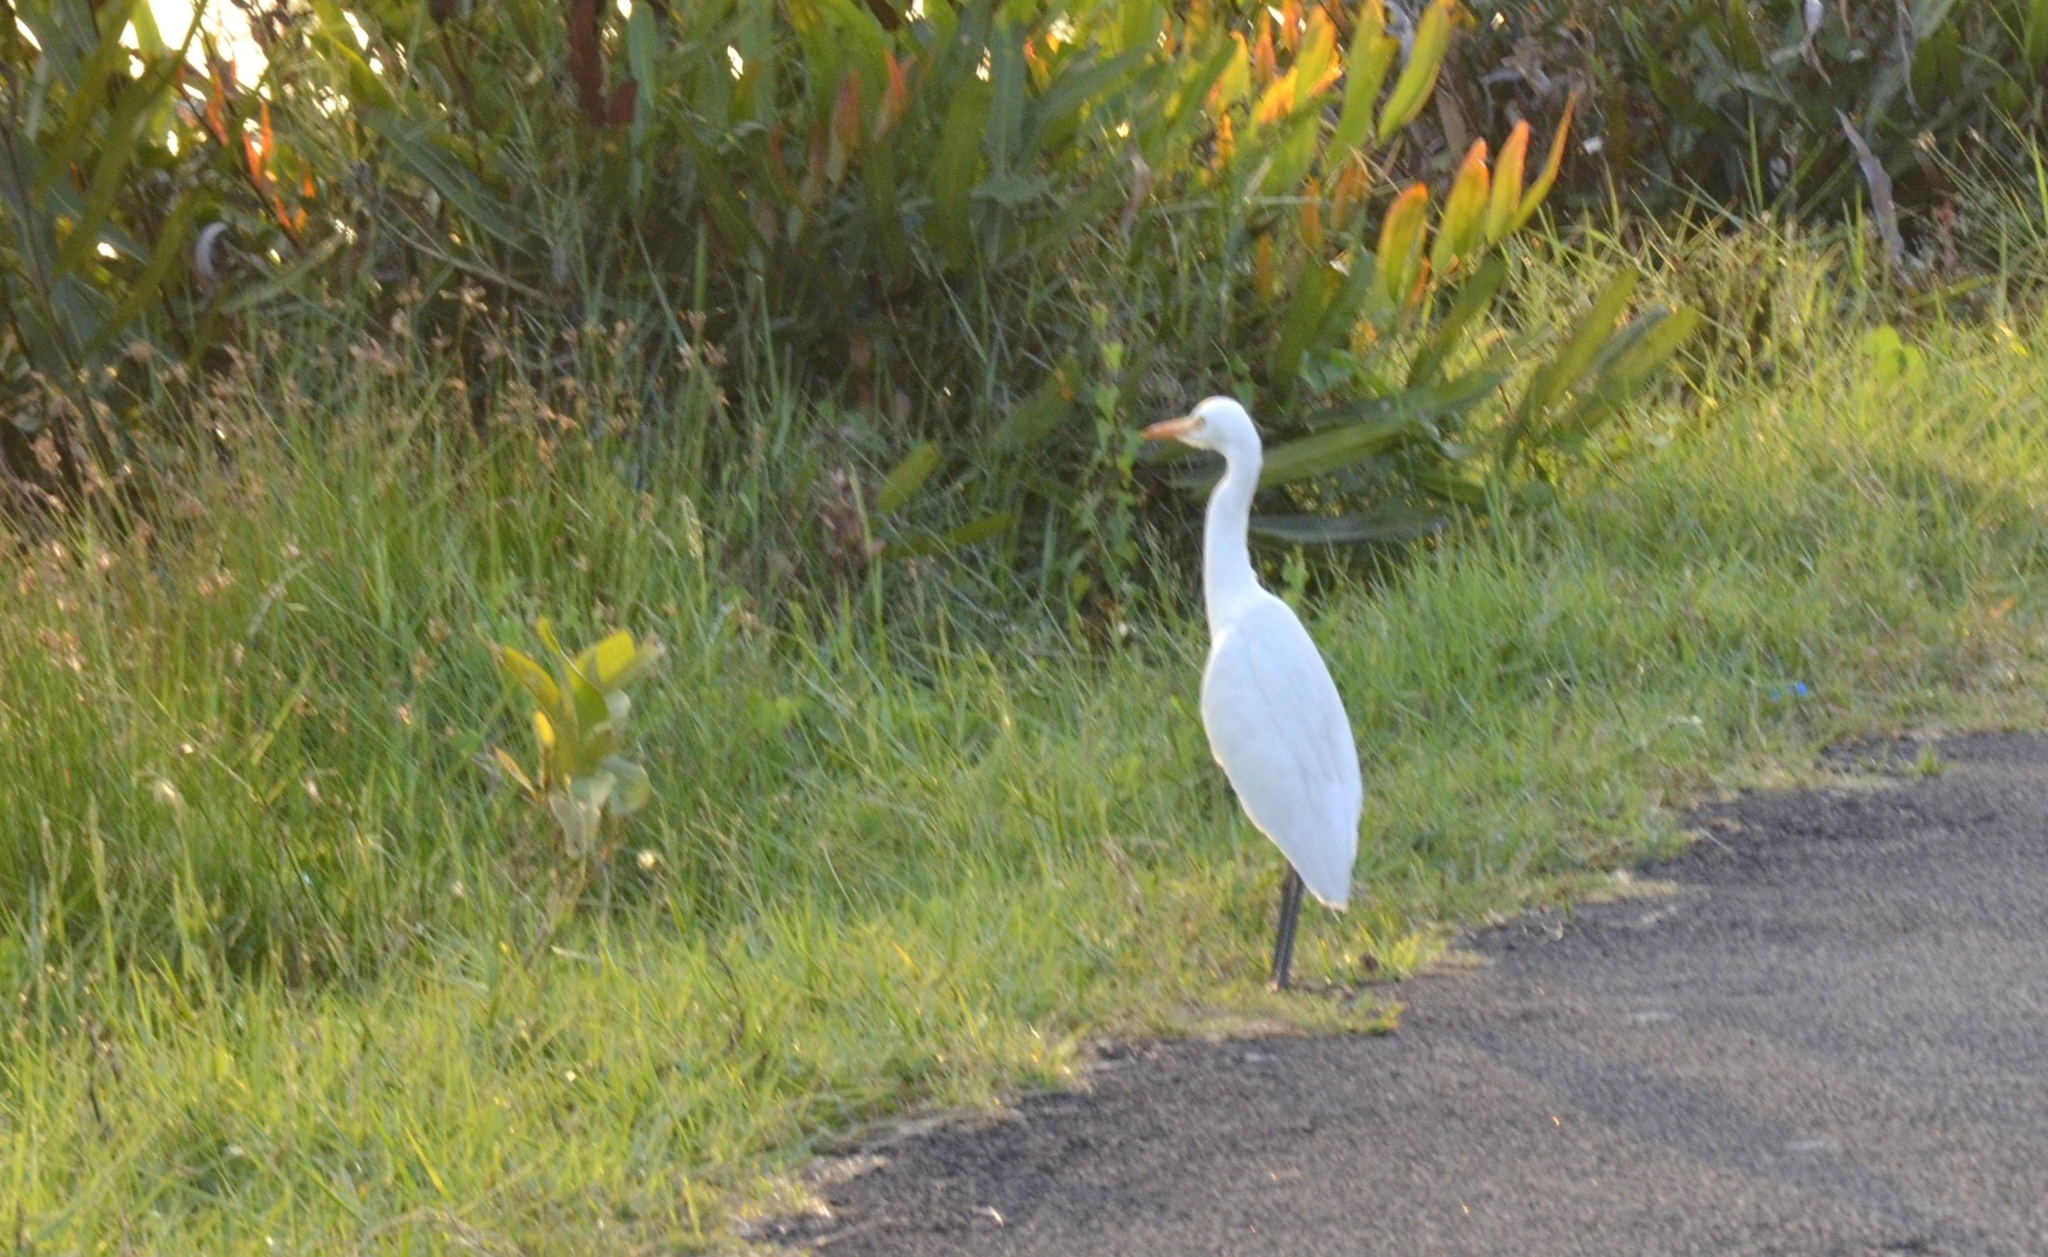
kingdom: Animalia
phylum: Chordata
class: Aves
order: Pelecaniformes
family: Ardeidae
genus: Bubulcus
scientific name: Bubulcus coromandus
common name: Eastern cattle egret
